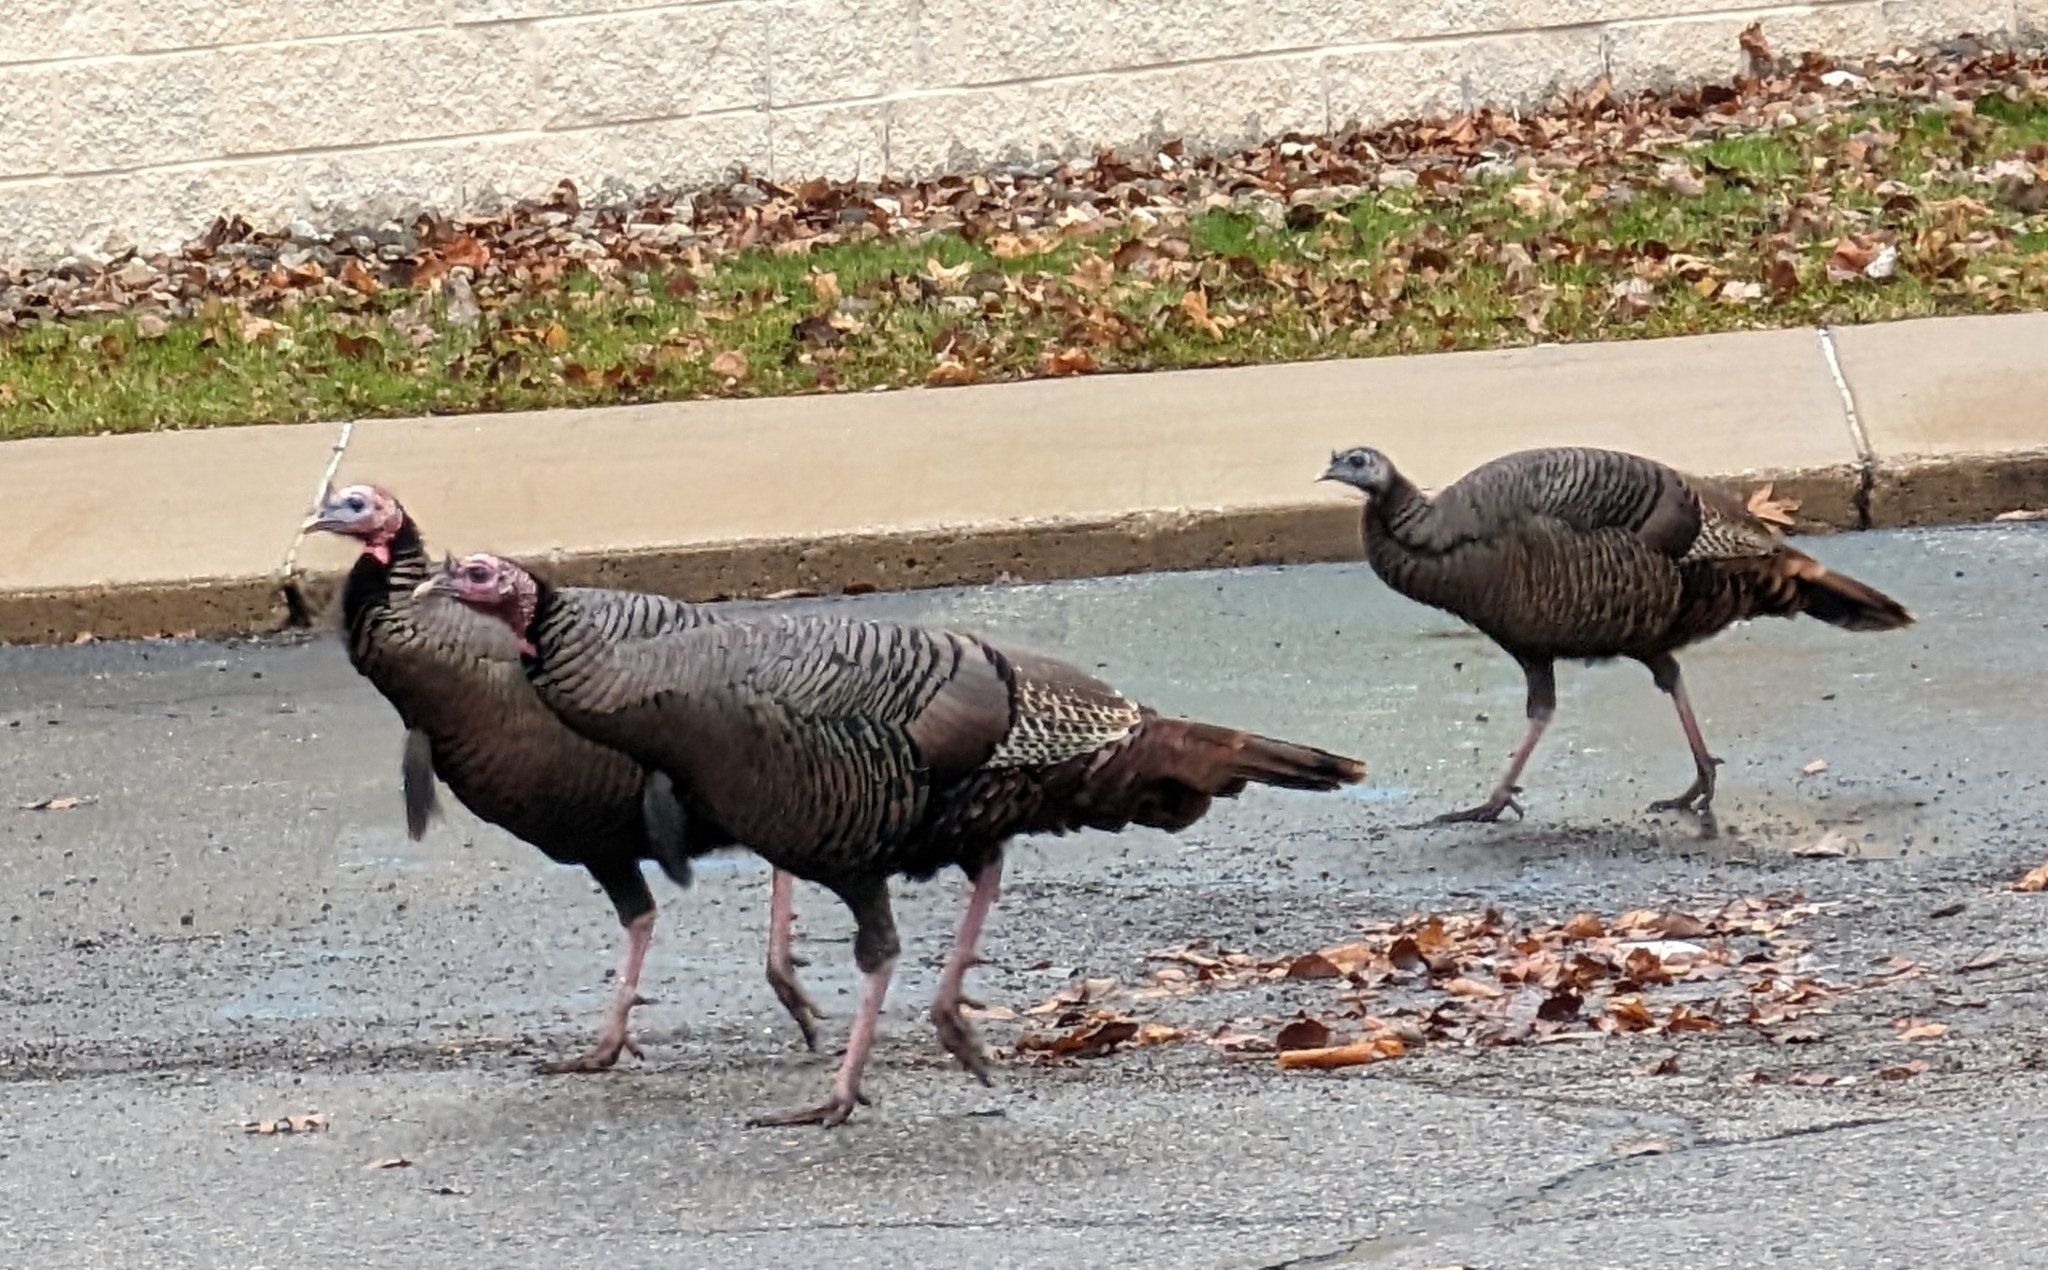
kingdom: Animalia
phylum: Chordata
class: Aves
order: Galliformes
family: Phasianidae
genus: Meleagris
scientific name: Meleagris gallopavo
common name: Wild turkey
